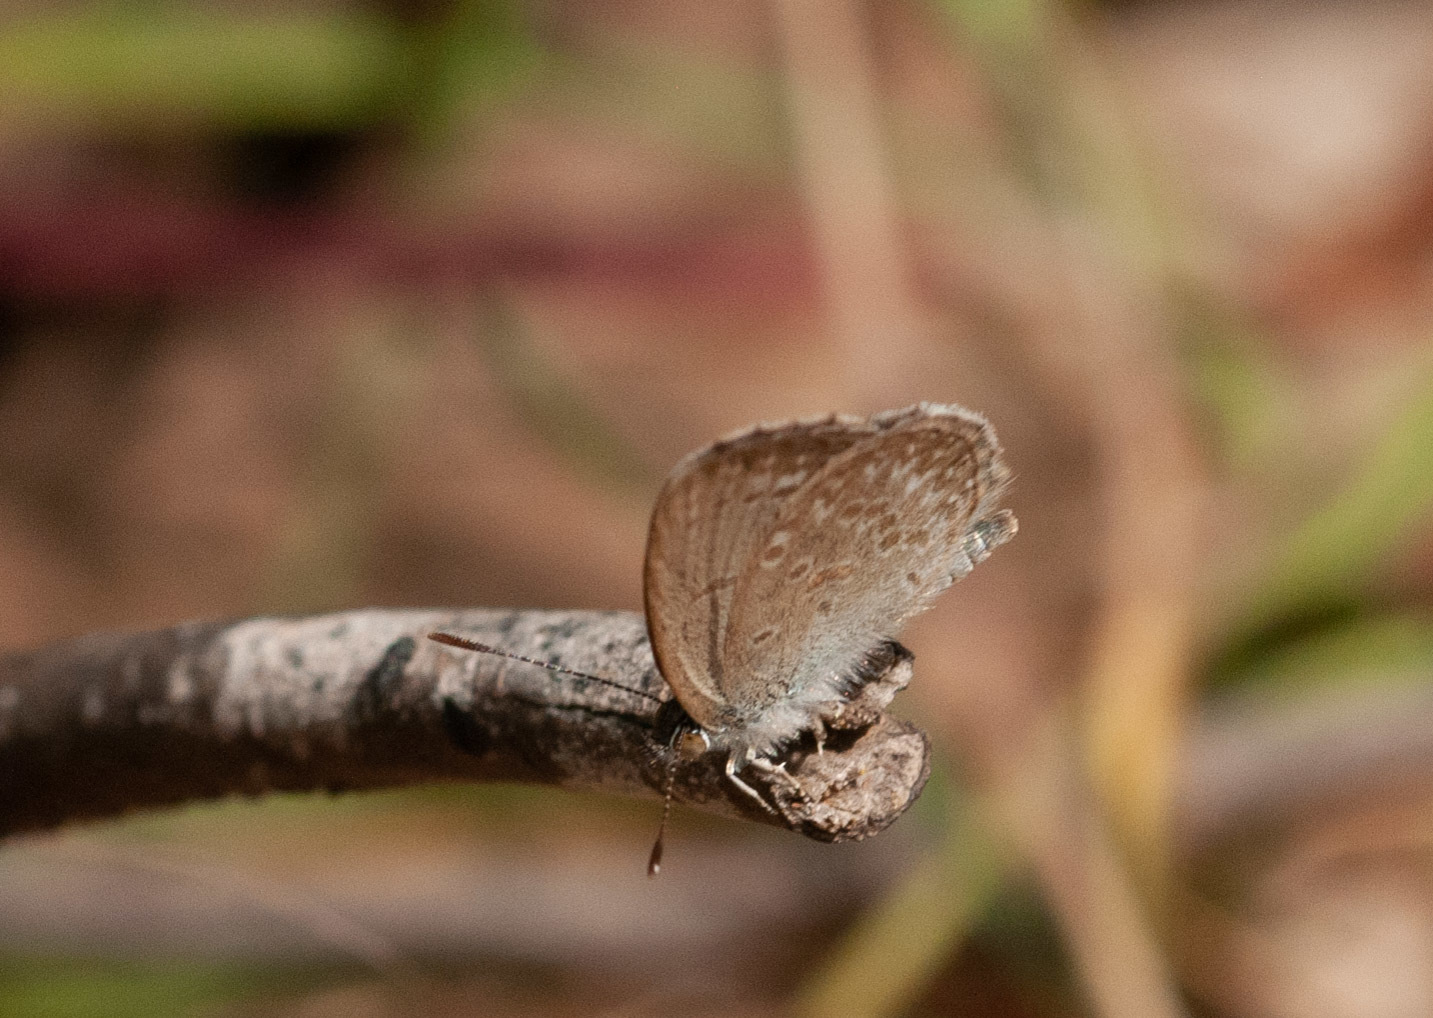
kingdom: Animalia
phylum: Arthropoda
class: Insecta
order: Lepidoptera
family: Lycaenidae
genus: Zizina
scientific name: Zizina labradus
